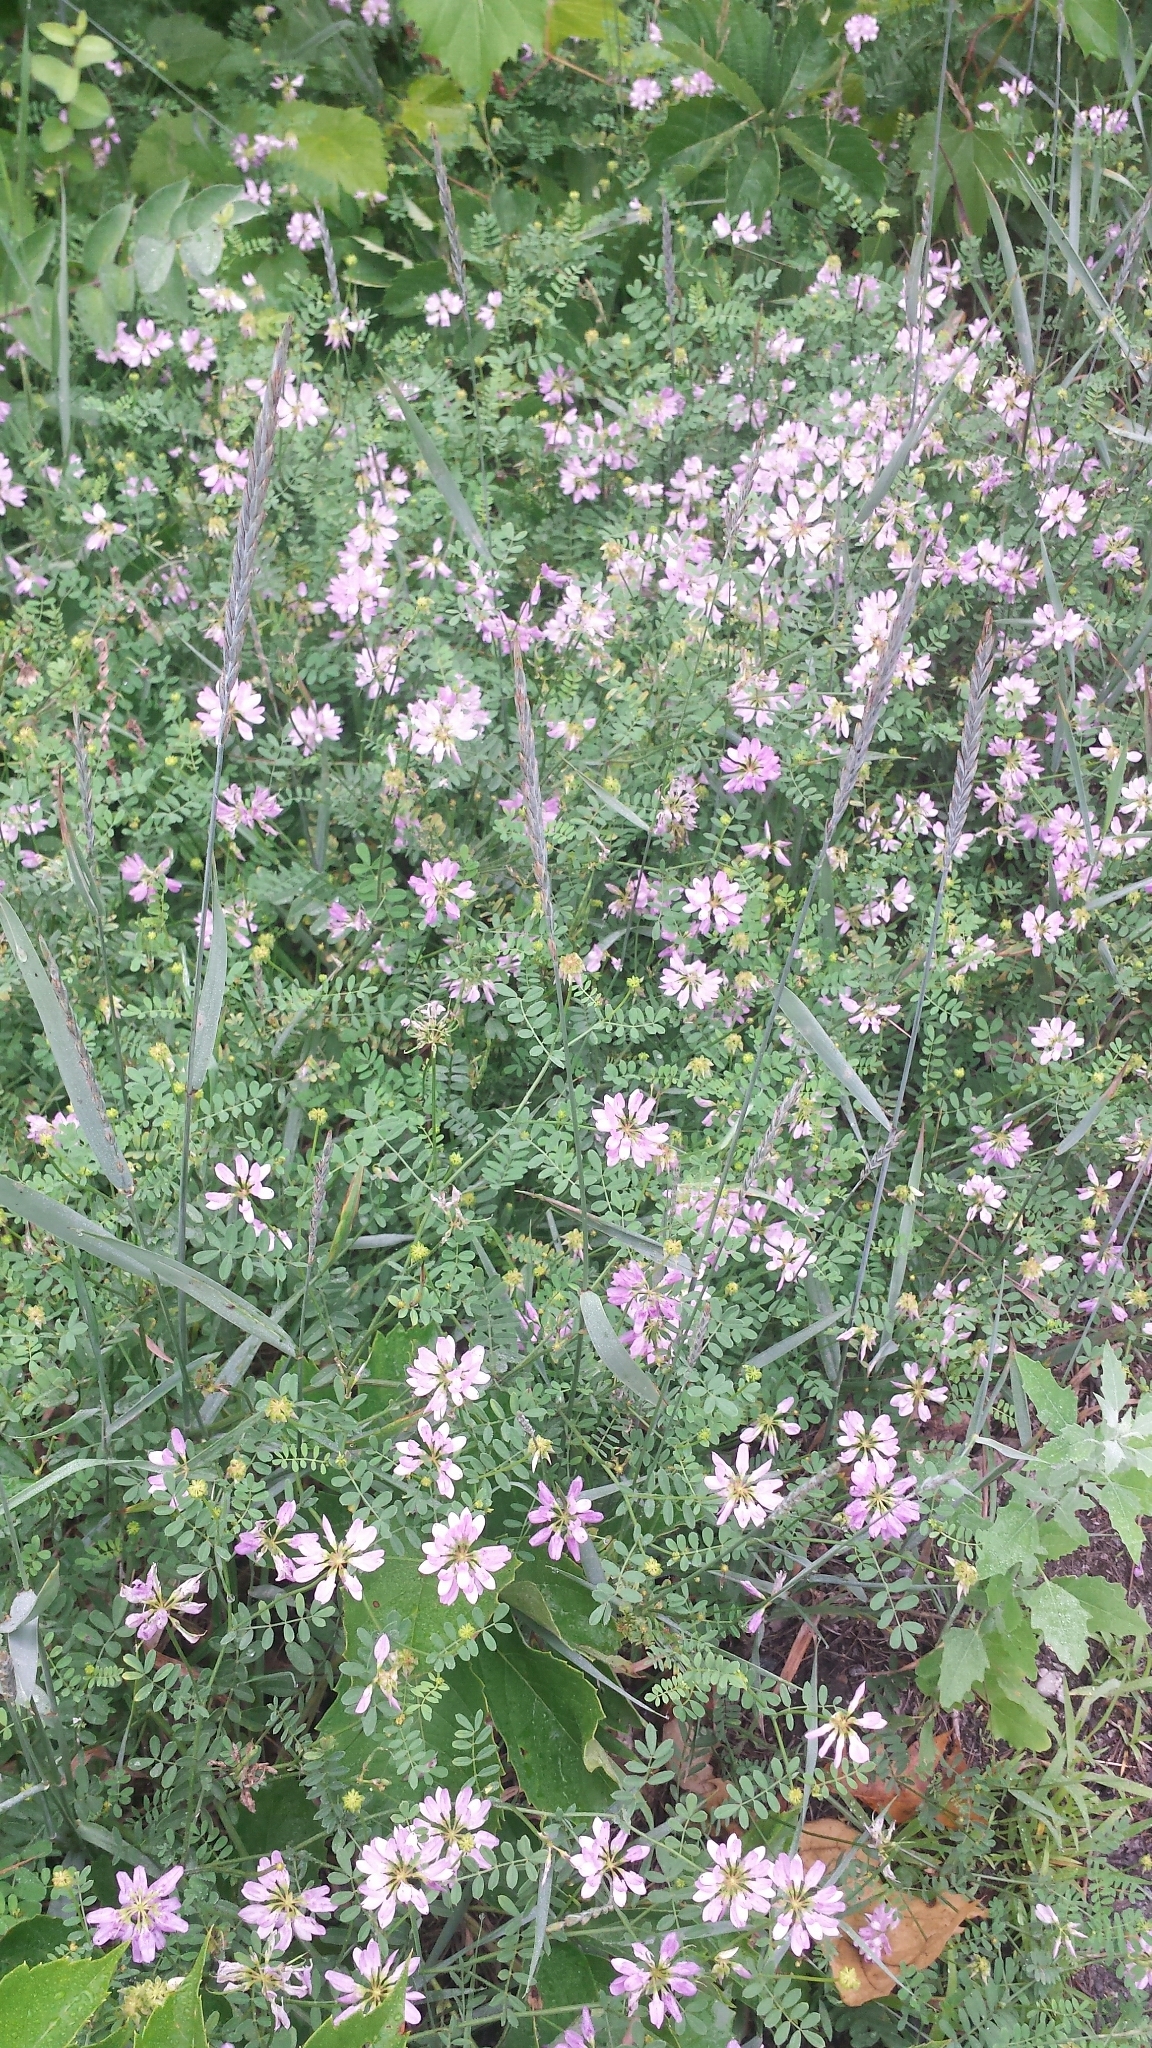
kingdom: Plantae
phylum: Tracheophyta
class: Magnoliopsida
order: Fabales
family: Fabaceae
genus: Coronilla
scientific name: Coronilla varia
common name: Crownvetch
